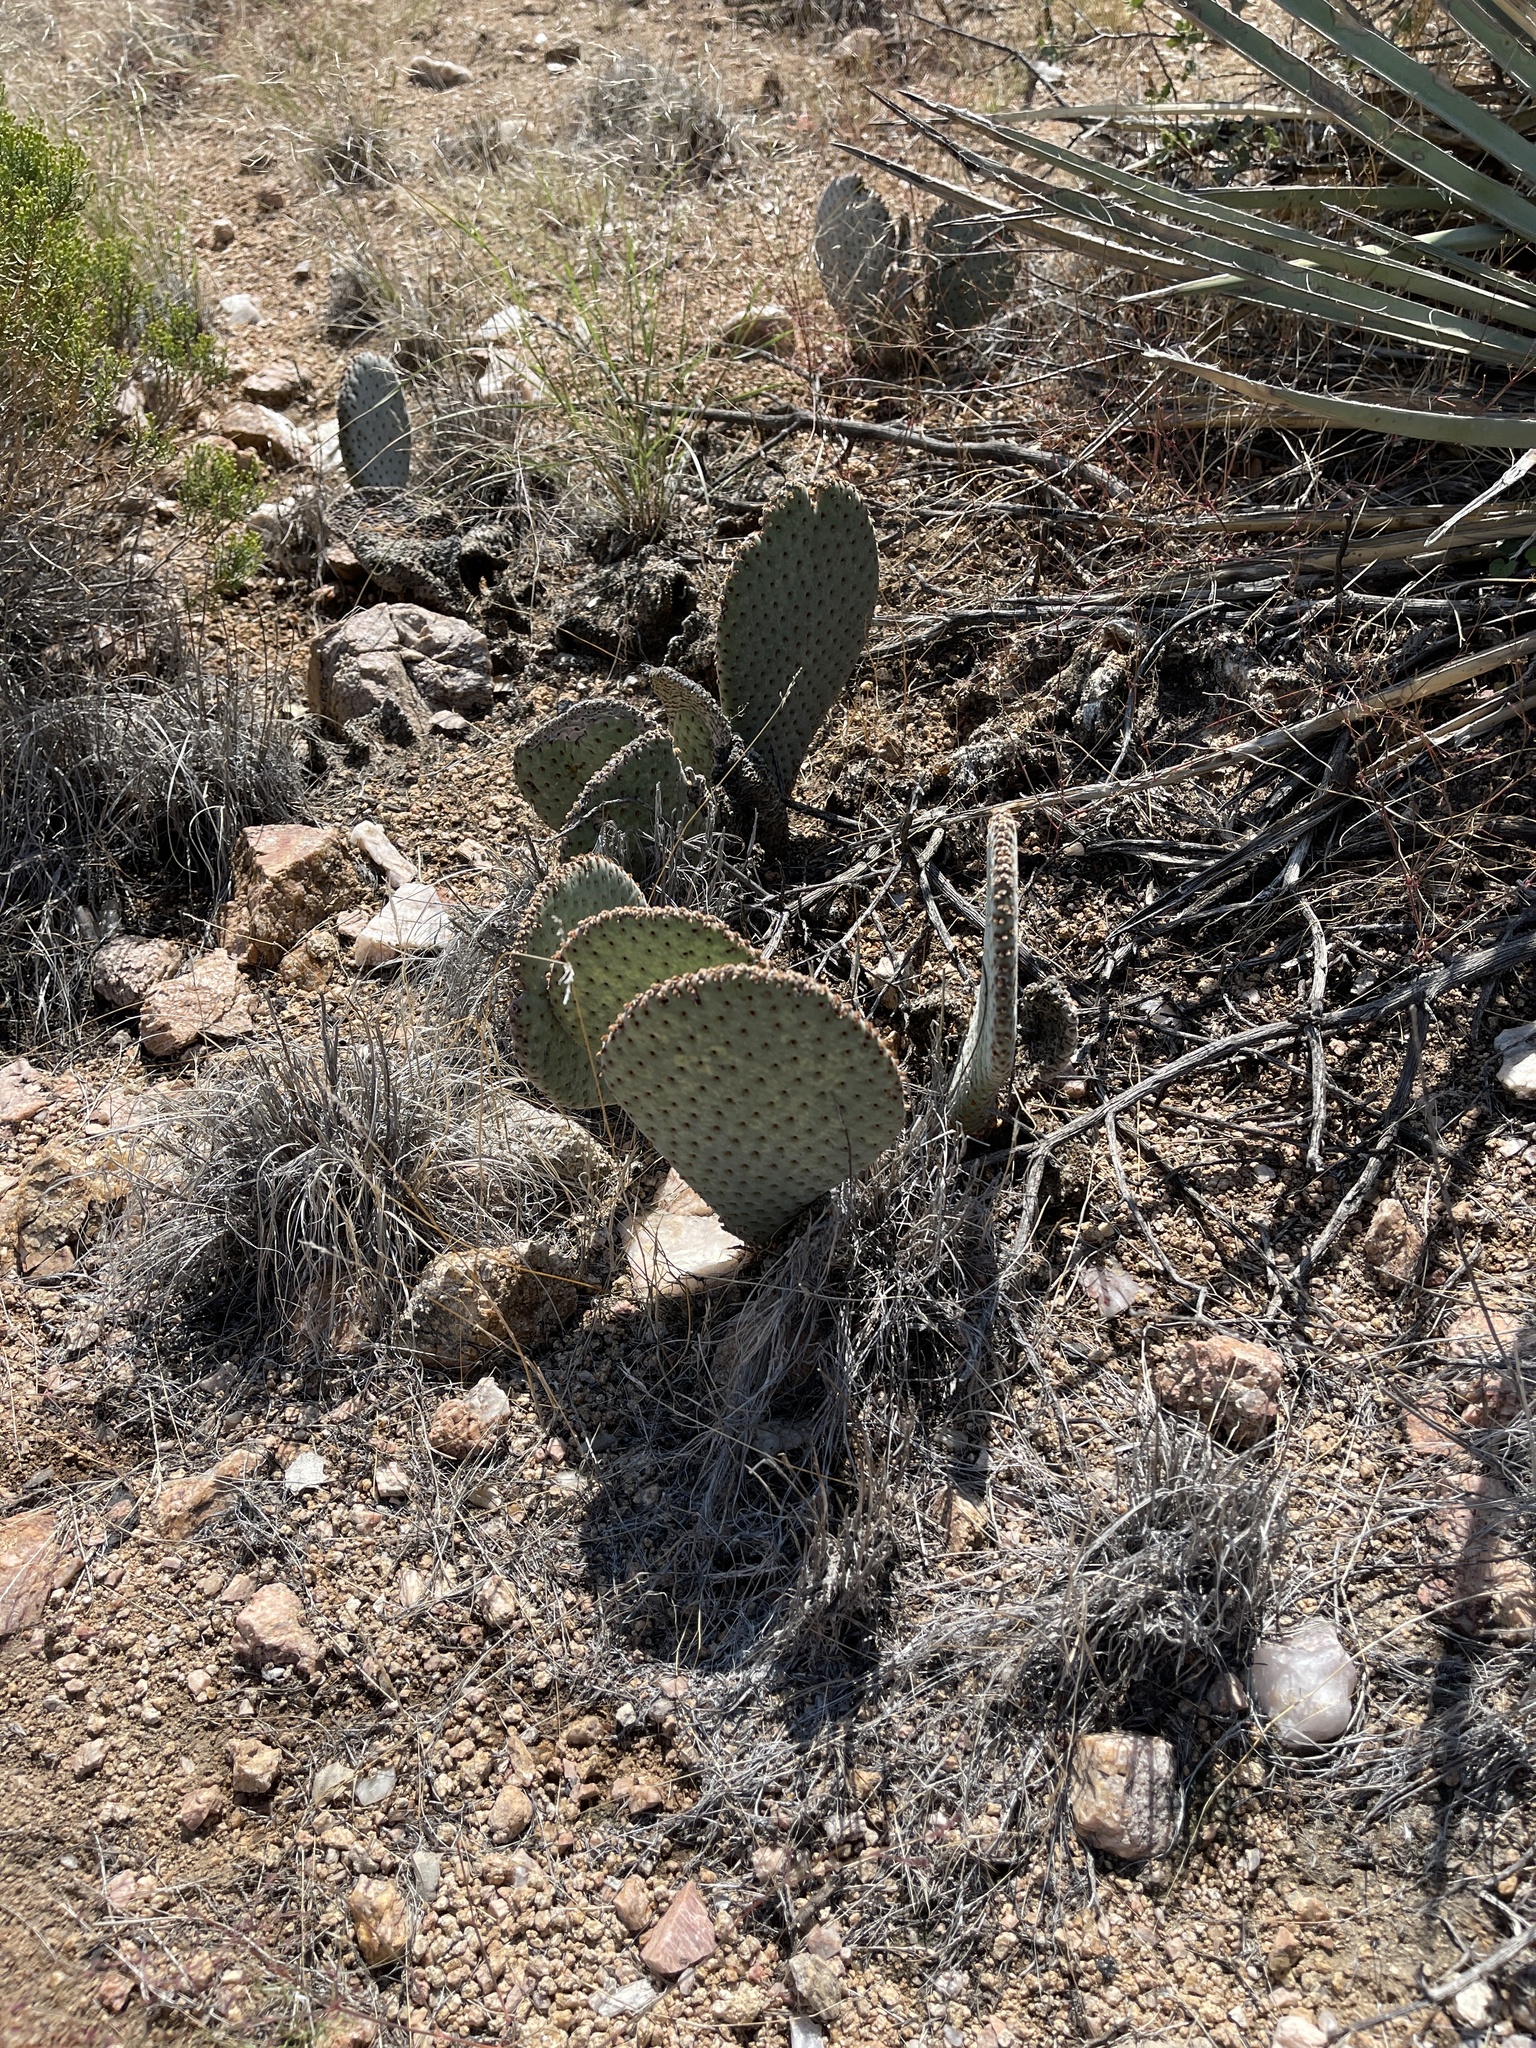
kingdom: Plantae
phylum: Tracheophyta
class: Magnoliopsida
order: Caryophyllales
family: Cactaceae
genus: Opuntia
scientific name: Opuntia basilaris
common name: Beavertail prickly-pear
